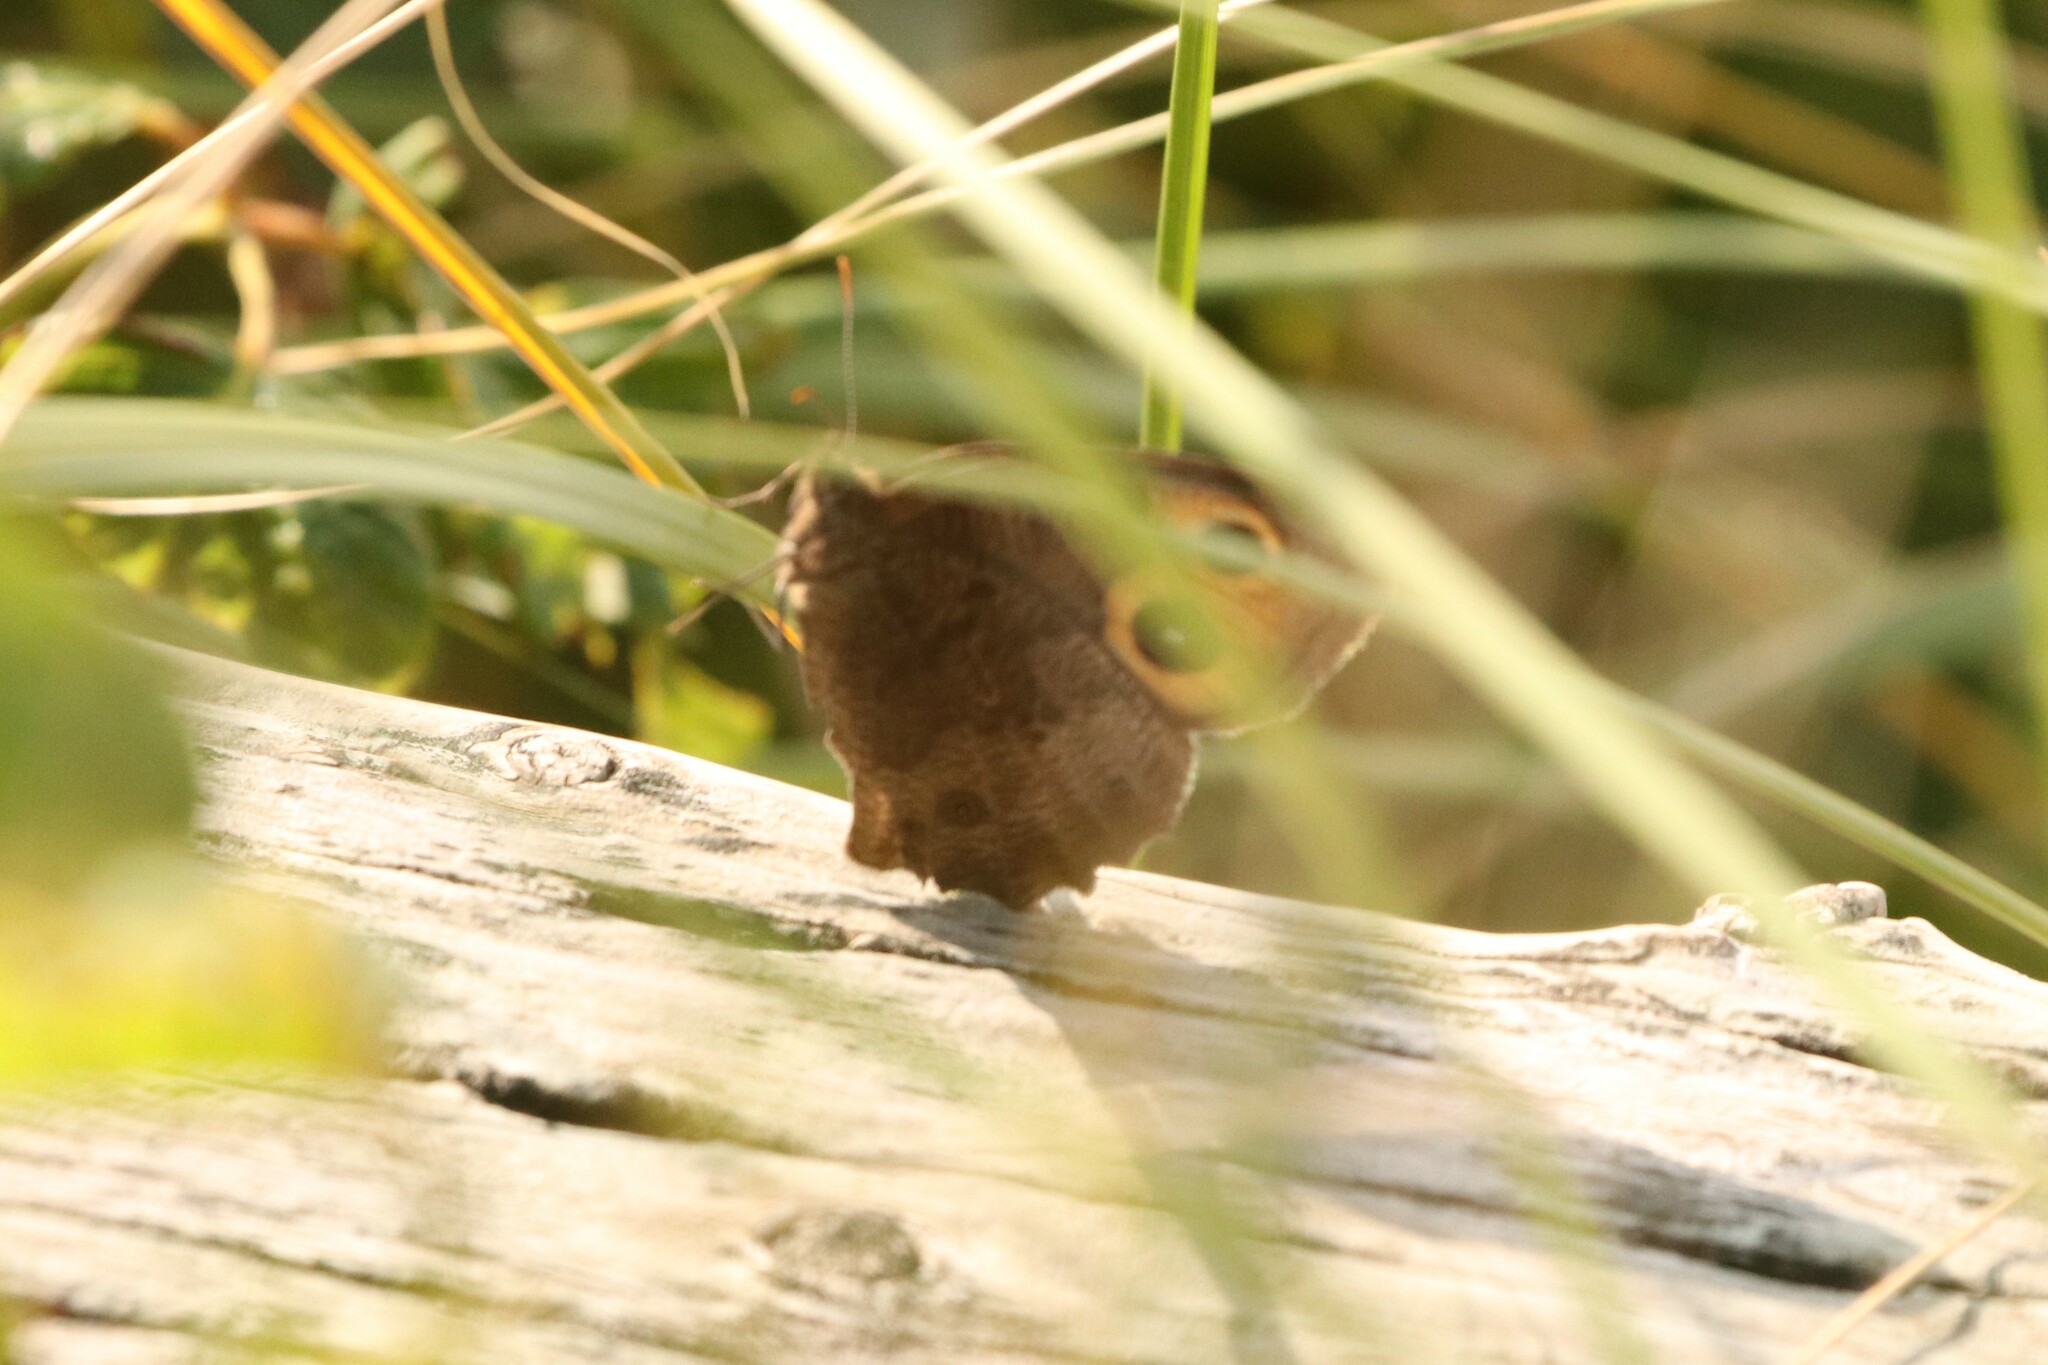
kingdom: Animalia
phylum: Arthropoda
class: Insecta
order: Lepidoptera
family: Nymphalidae
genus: Cercyonis
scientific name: Cercyonis pegala
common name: Common wood-nymph
